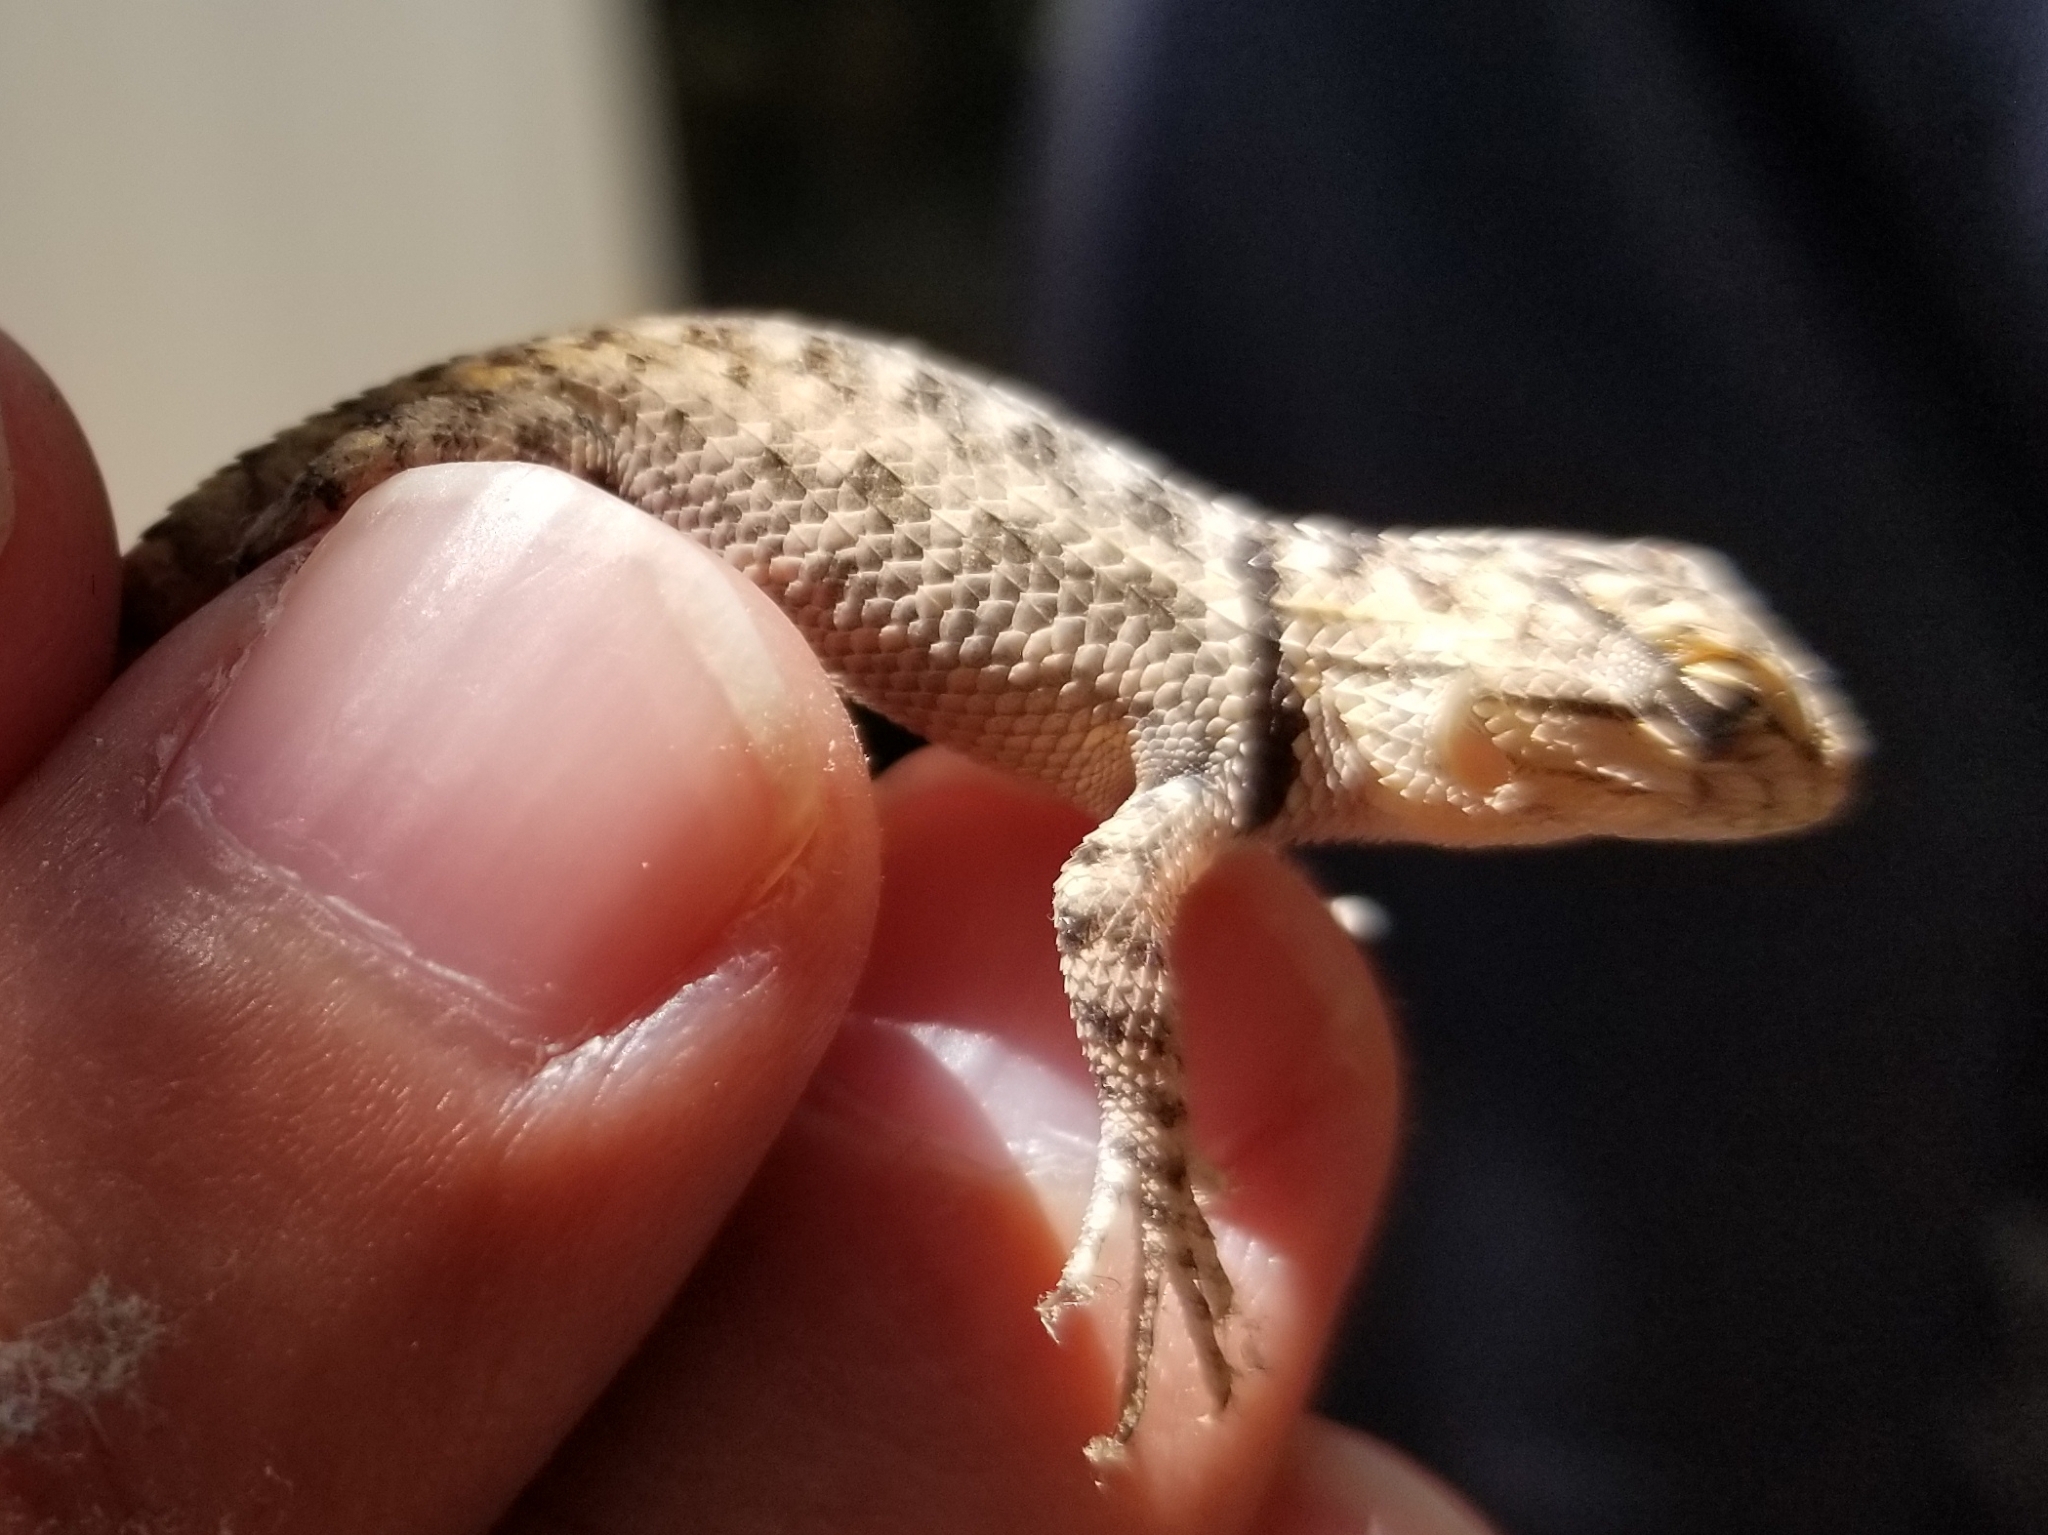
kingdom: Animalia
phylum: Chordata
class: Squamata
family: Phrynosomatidae
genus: Sceloporus
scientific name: Sceloporus magister
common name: Desert spiny lizard
